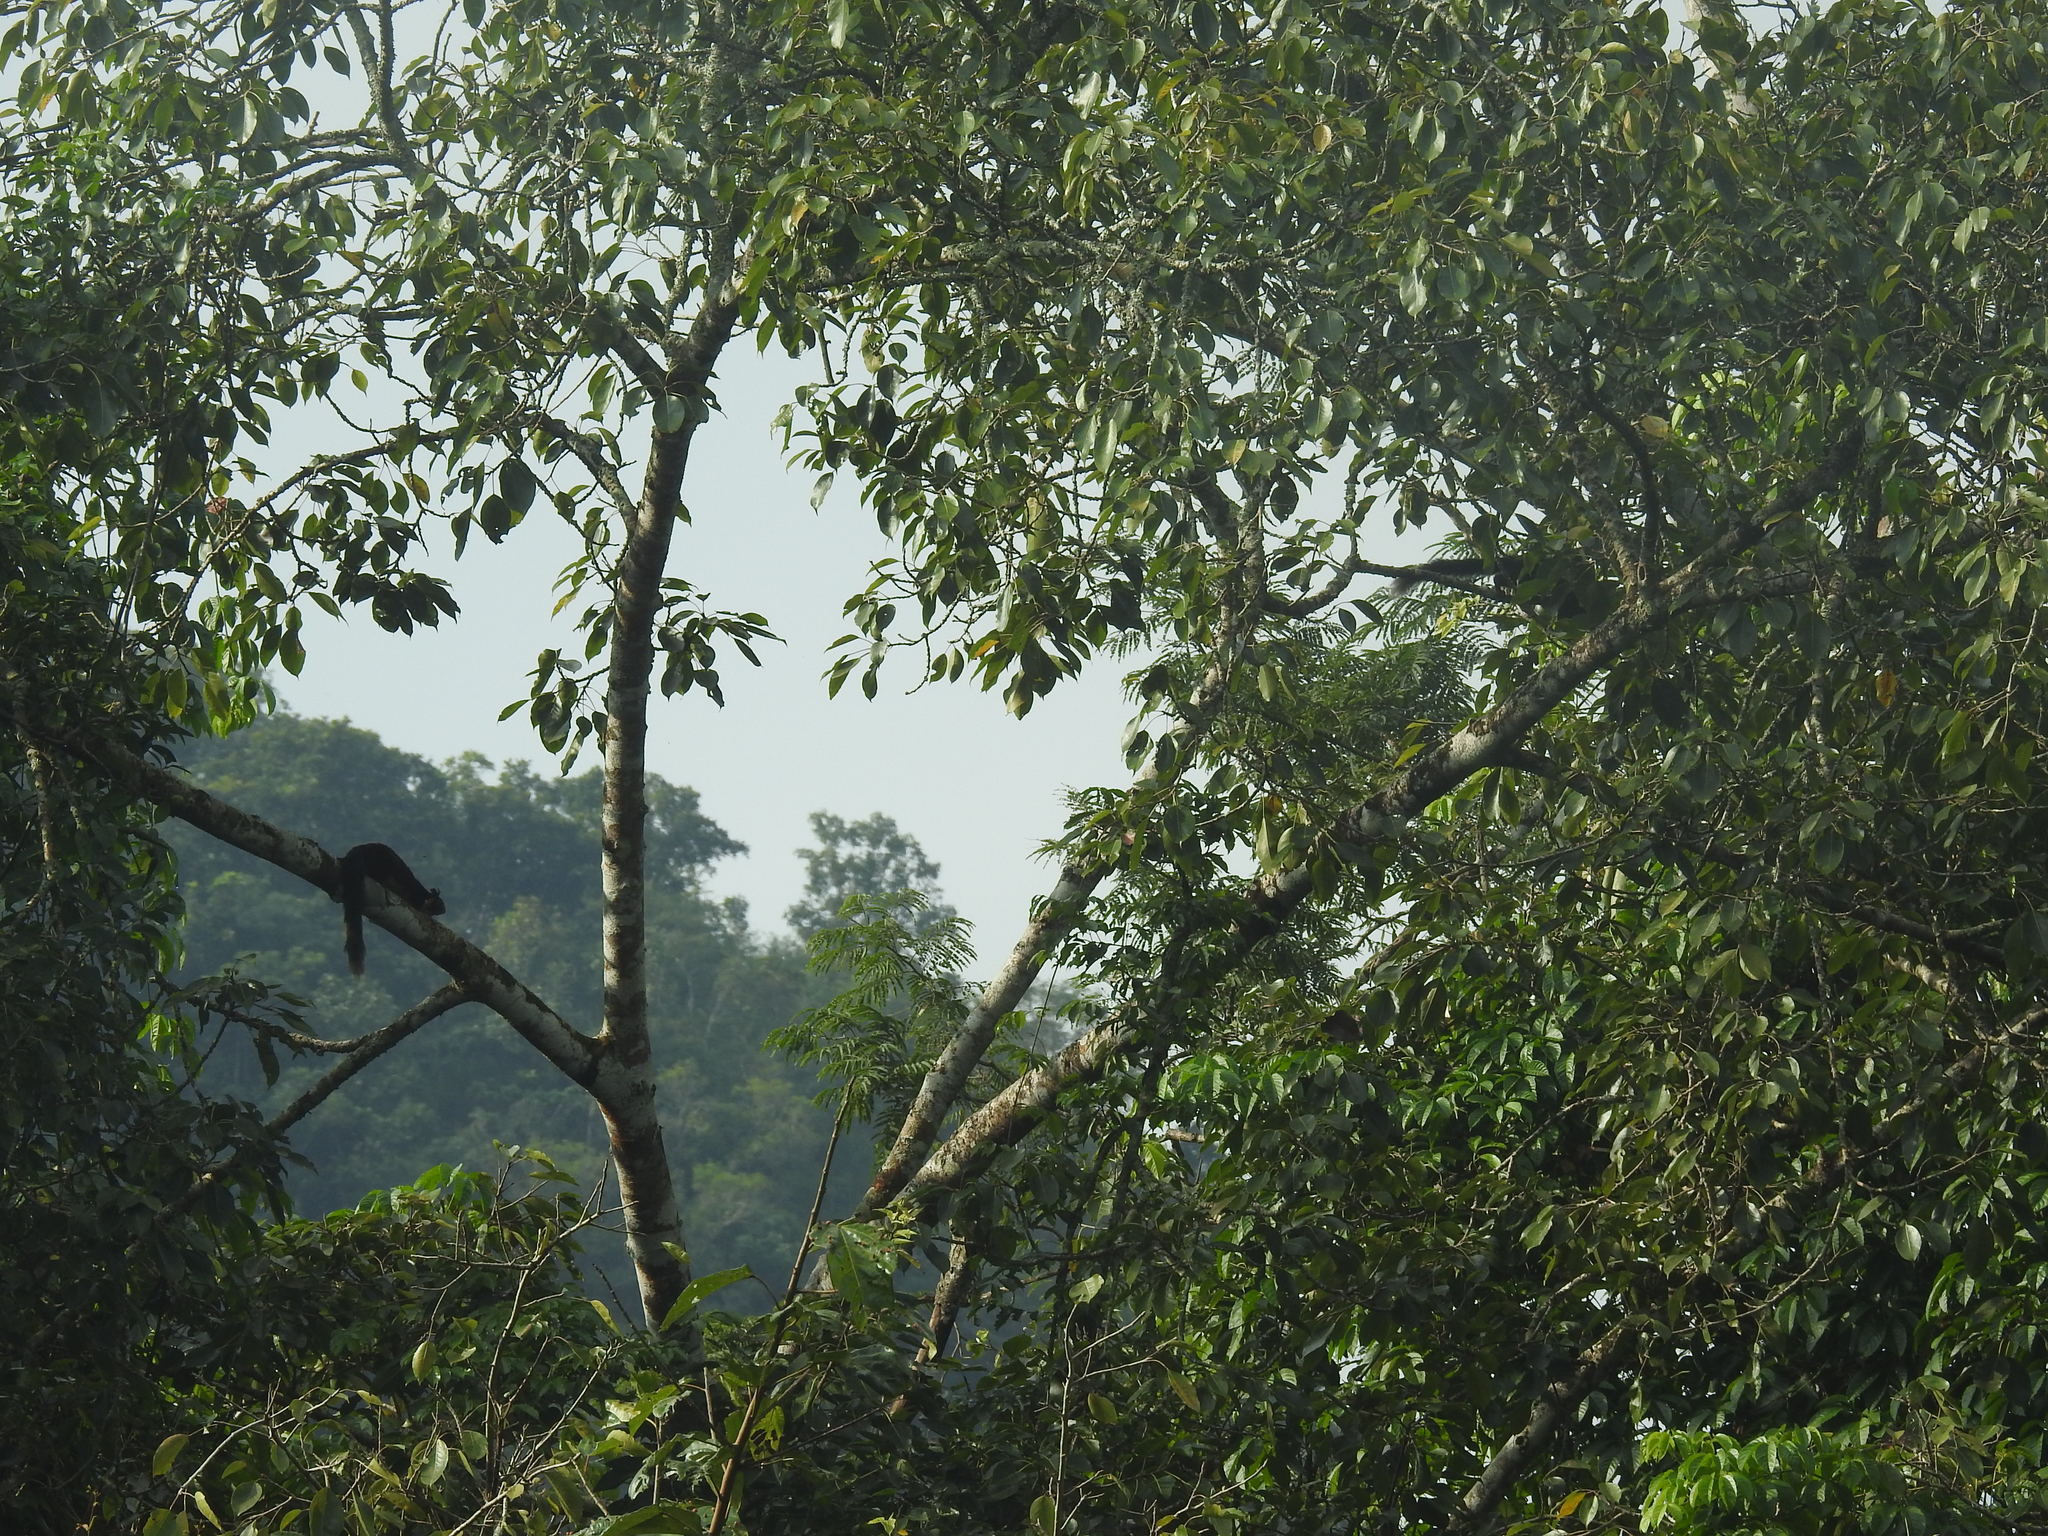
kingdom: Animalia
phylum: Chordata
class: Mammalia
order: Rodentia
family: Sciuridae
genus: Ratufa
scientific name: Ratufa indica
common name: Indian giant squirrel
